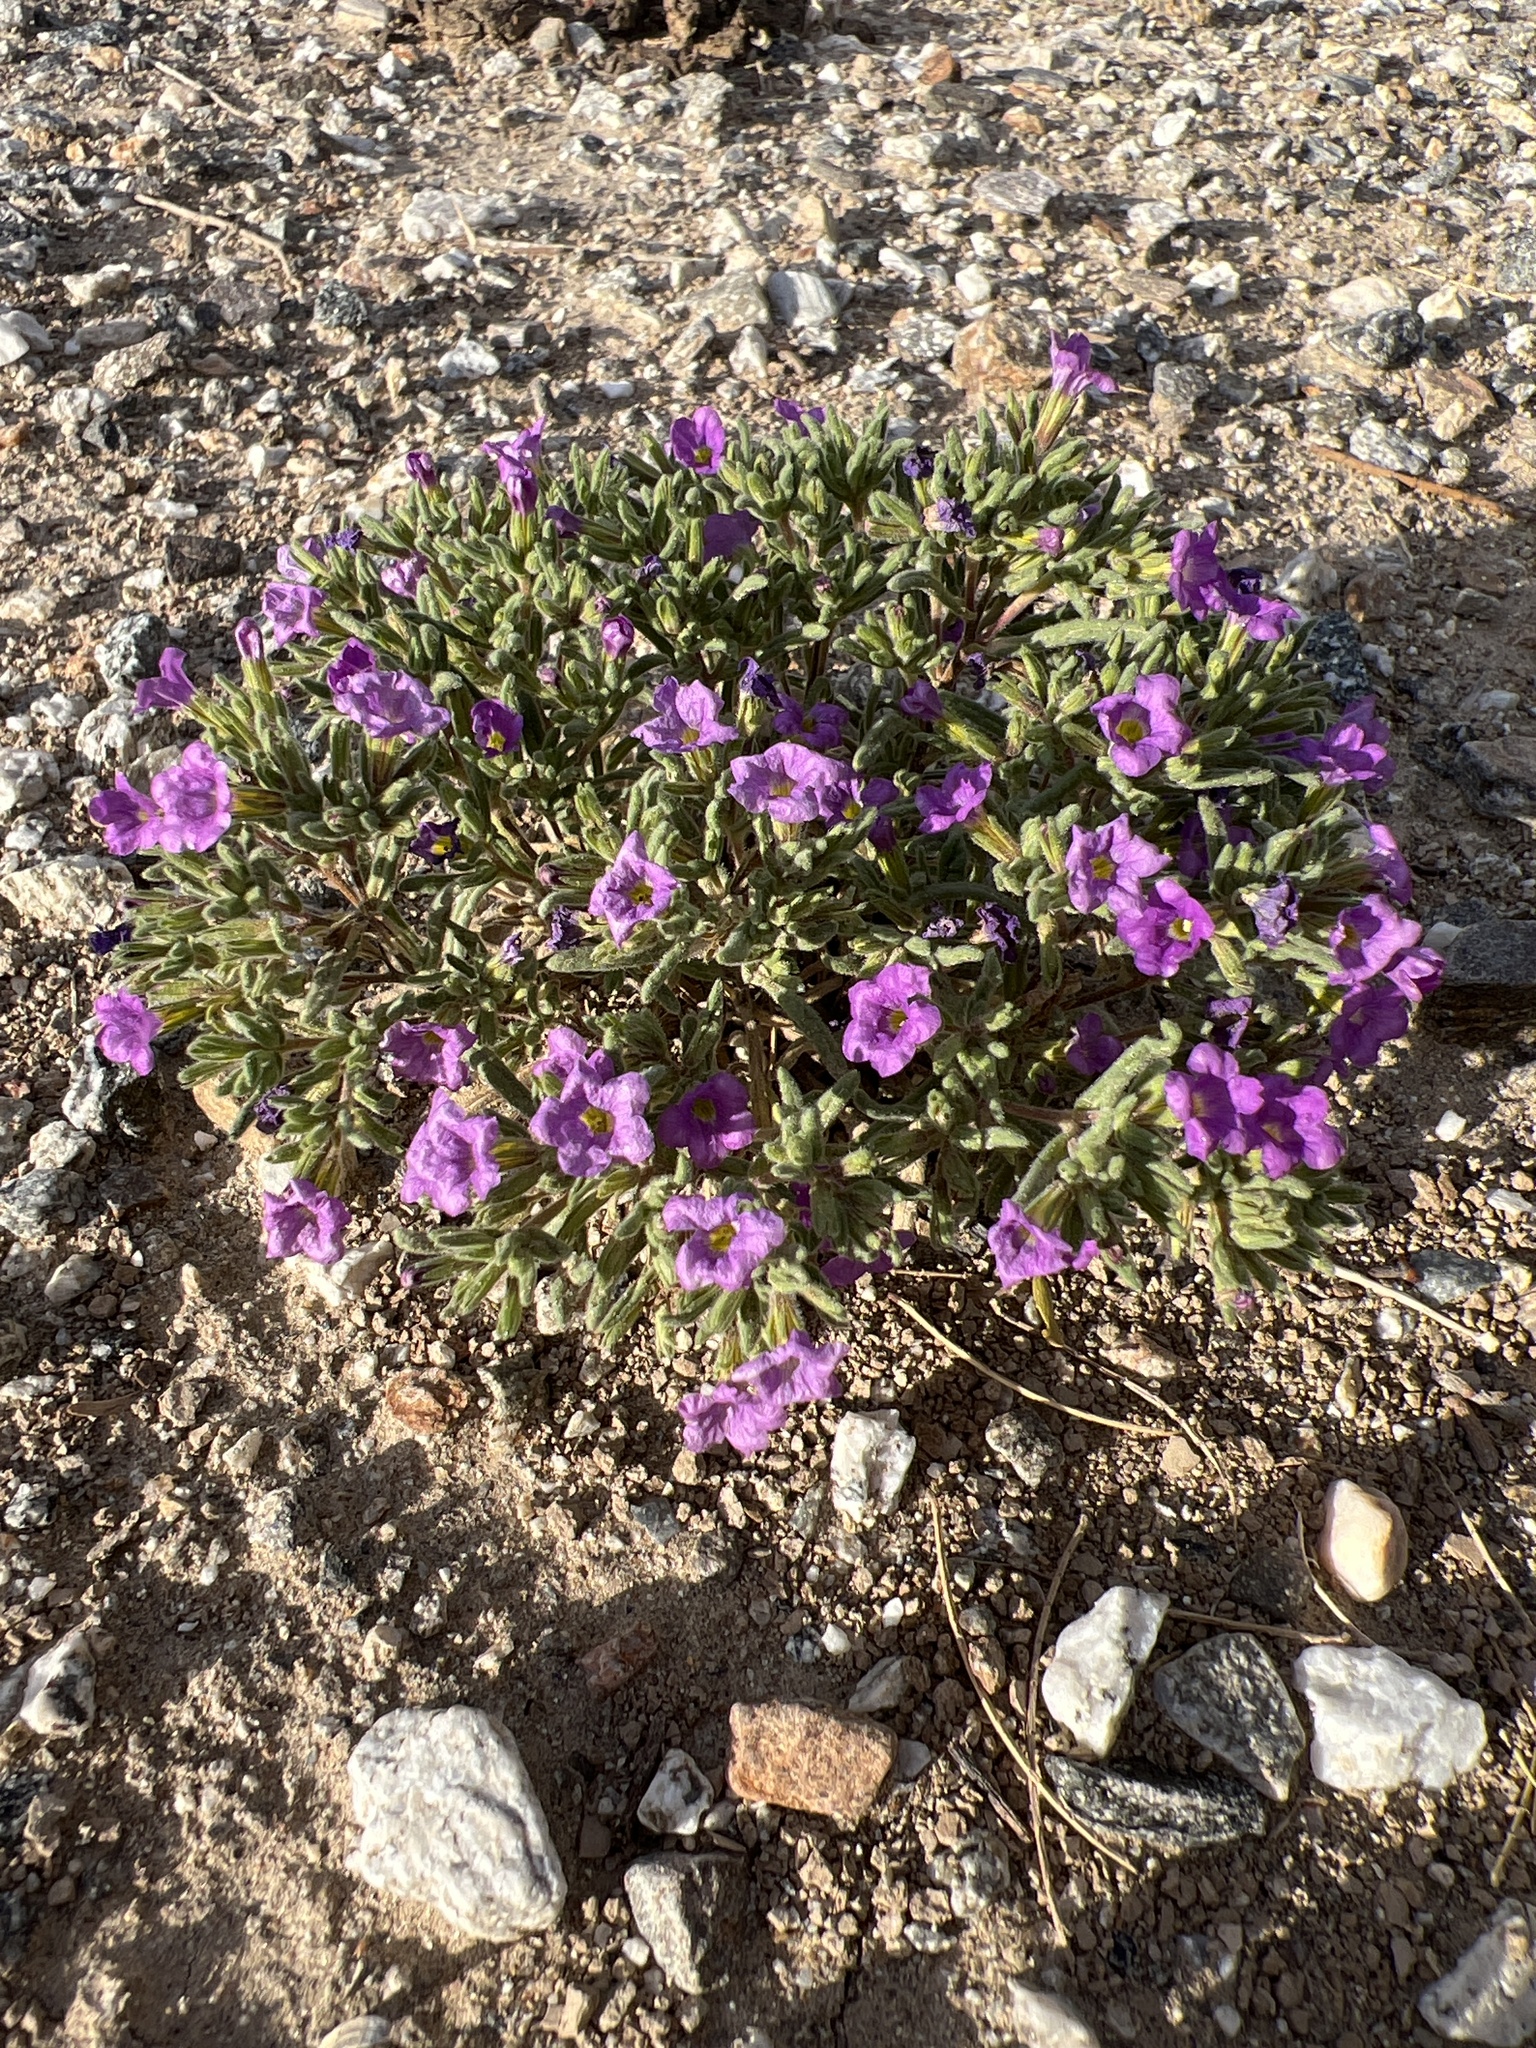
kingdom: Plantae
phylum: Tracheophyta
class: Magnoliopsida
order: Boraginales
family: Namaceae
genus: Nama
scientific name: Nama hispida
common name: Bristly nama
